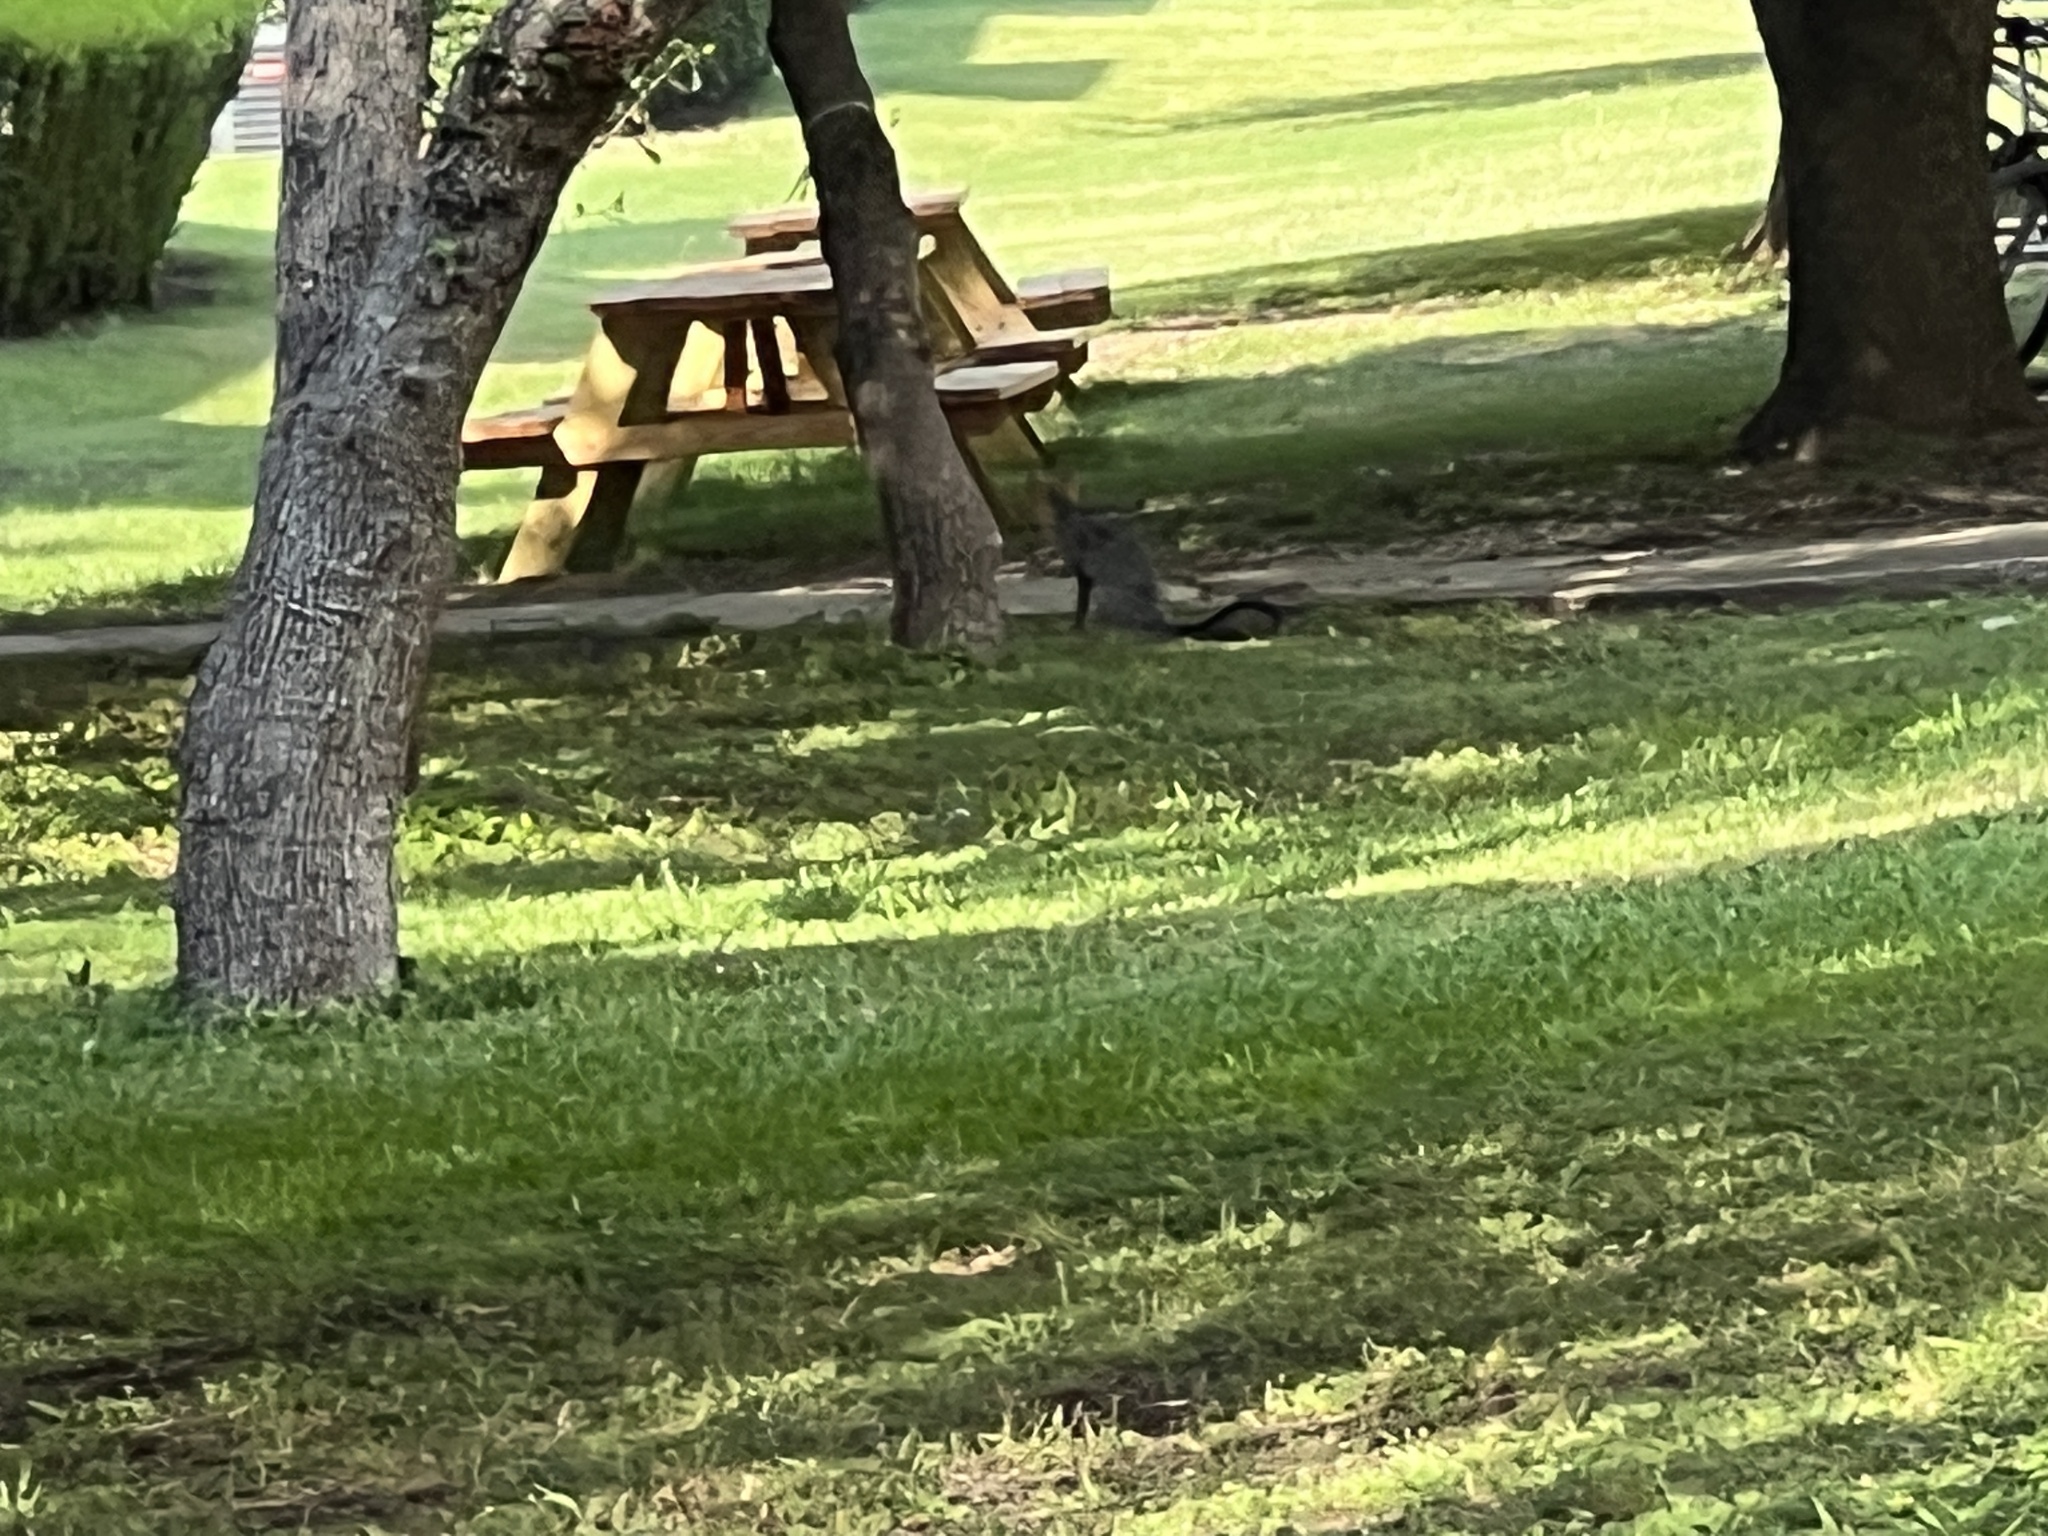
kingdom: Animalia
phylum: Chordata
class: Mammalia
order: Carnivora
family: Canidae
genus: Urocyon
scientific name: Urocyon cinereoargenteus
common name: Gray fox
